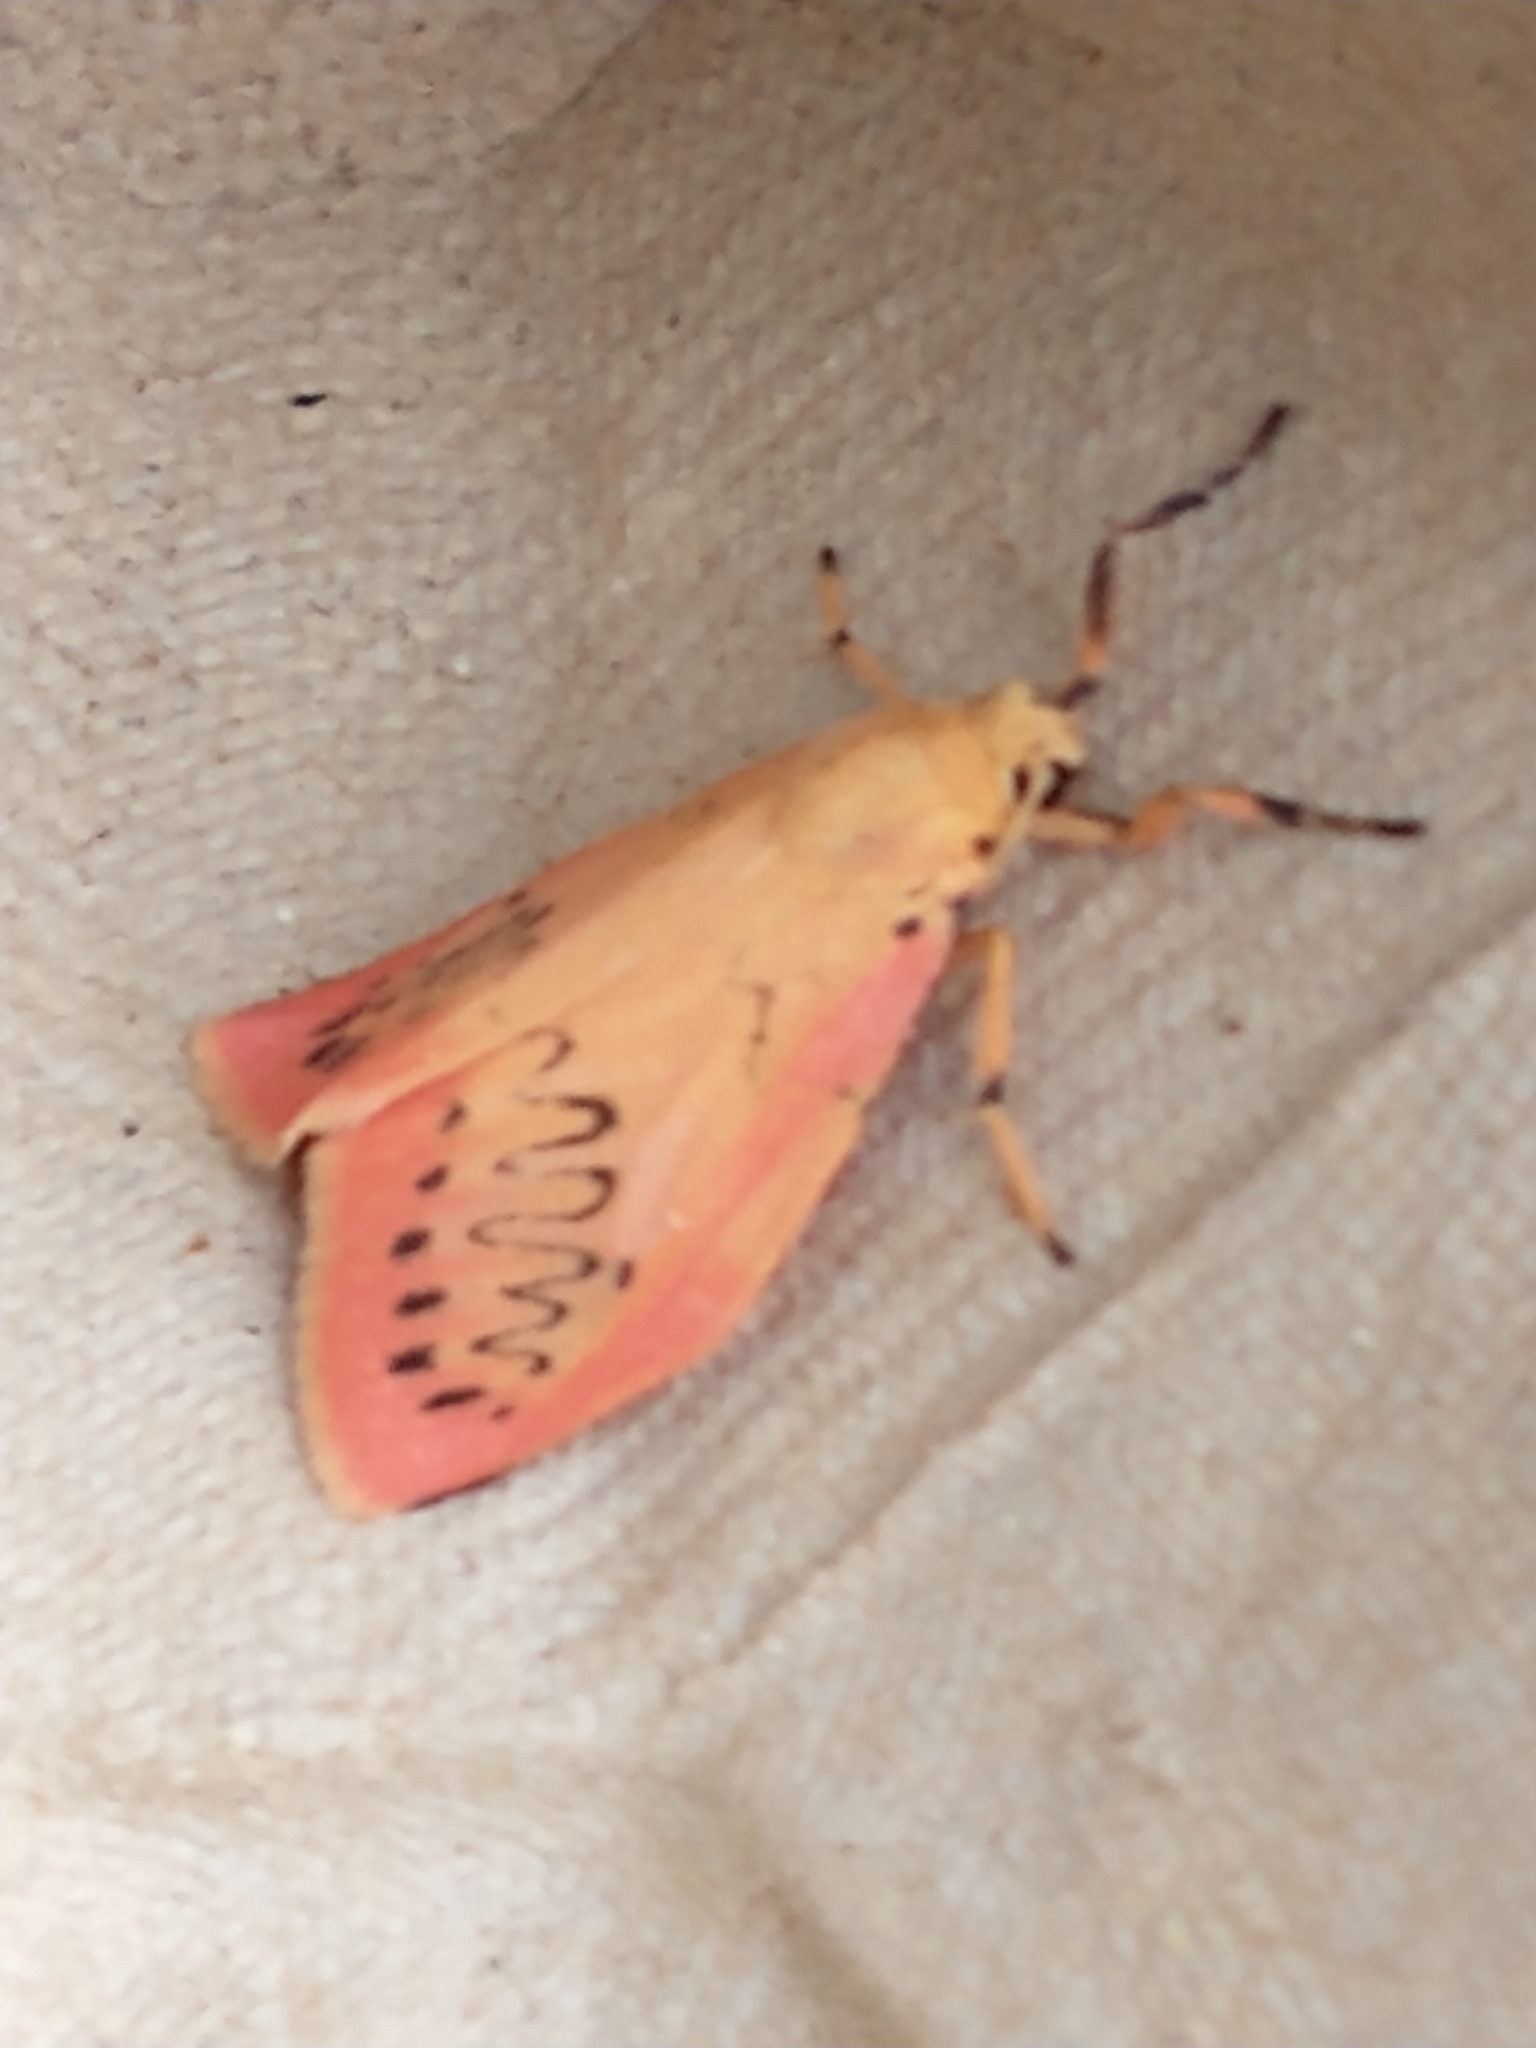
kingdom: Animalia
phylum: Arthropoda
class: Insecta
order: Lepidoptera
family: Erebidae
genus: Miltochrista
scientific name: Miltochrista miniata
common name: Rosy footman
